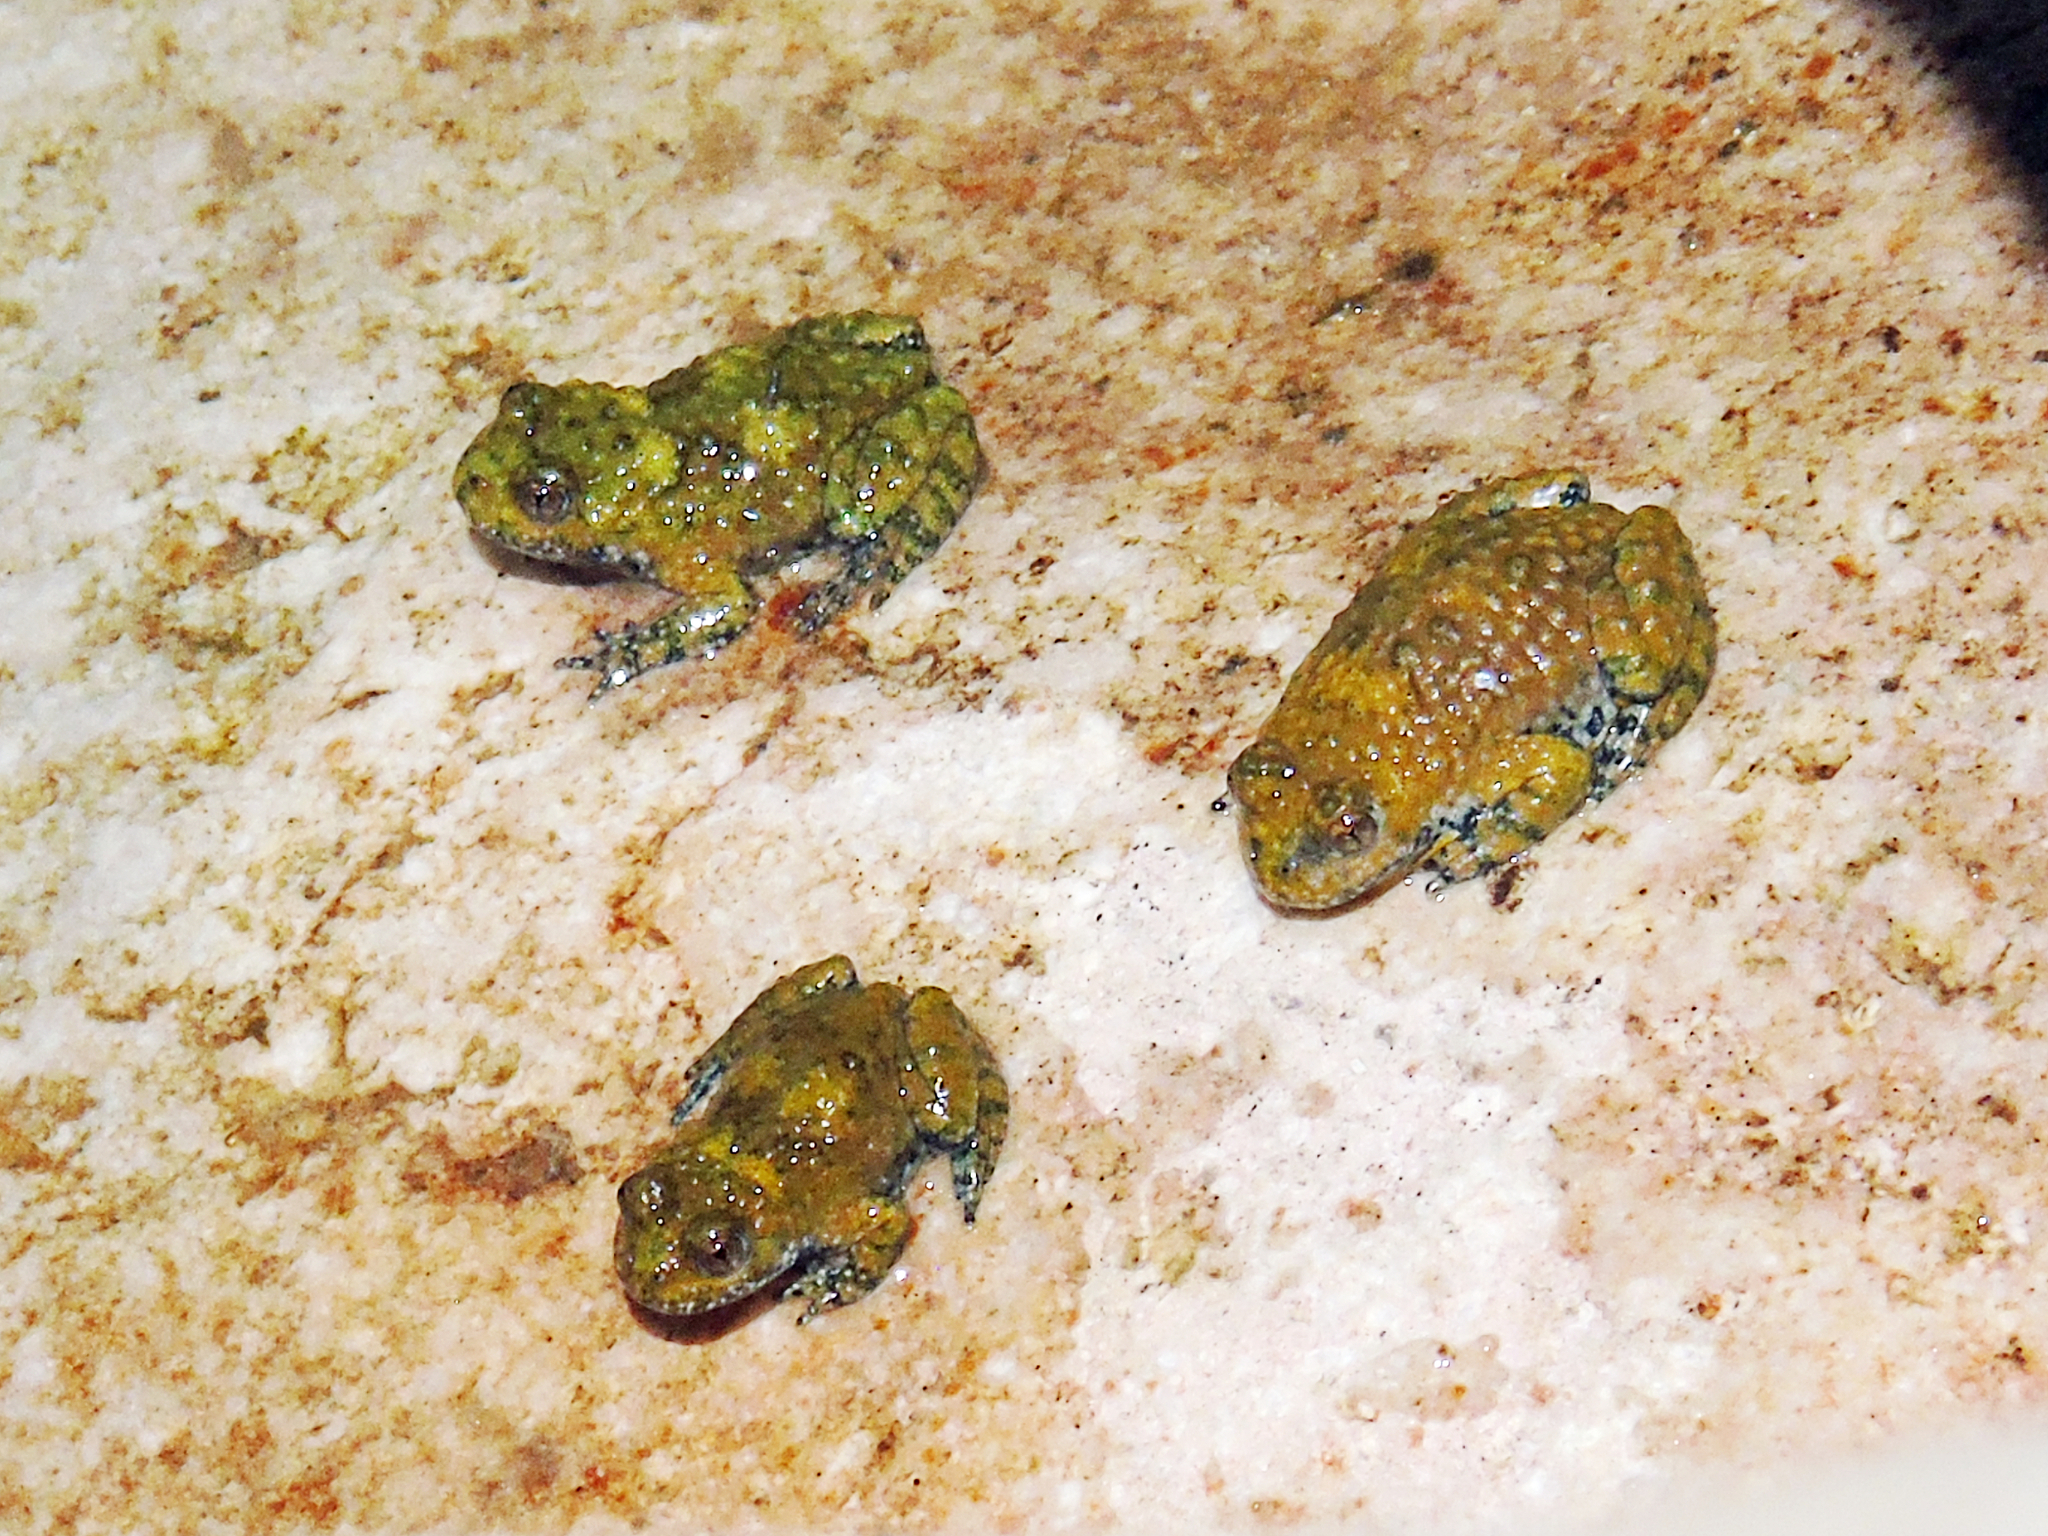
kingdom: Animalia
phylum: Chordata
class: Amphibia
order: Anura
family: Bombinatoridae
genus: Bombina
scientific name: Bombina variegata
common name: Yellow-bellied toad
